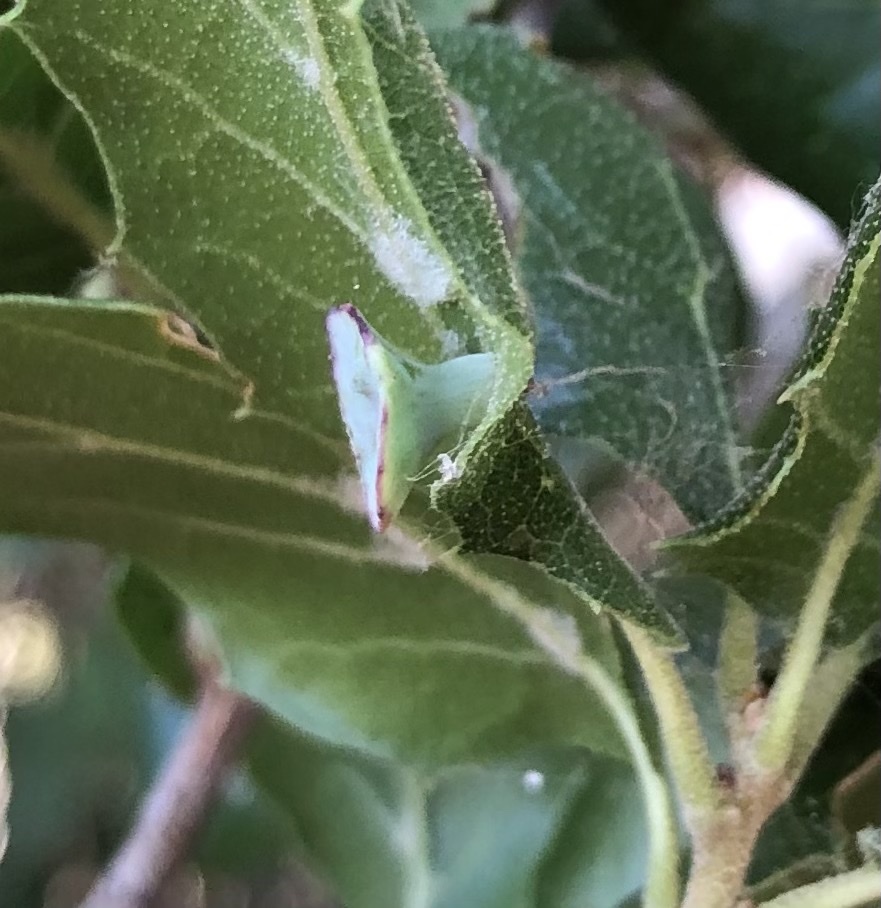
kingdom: Animalia
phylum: Arthropoda
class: Insecta
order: Hymenoptera
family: Cynipidae
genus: Amphibolips
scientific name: Amphibolips quercuspomiformis
